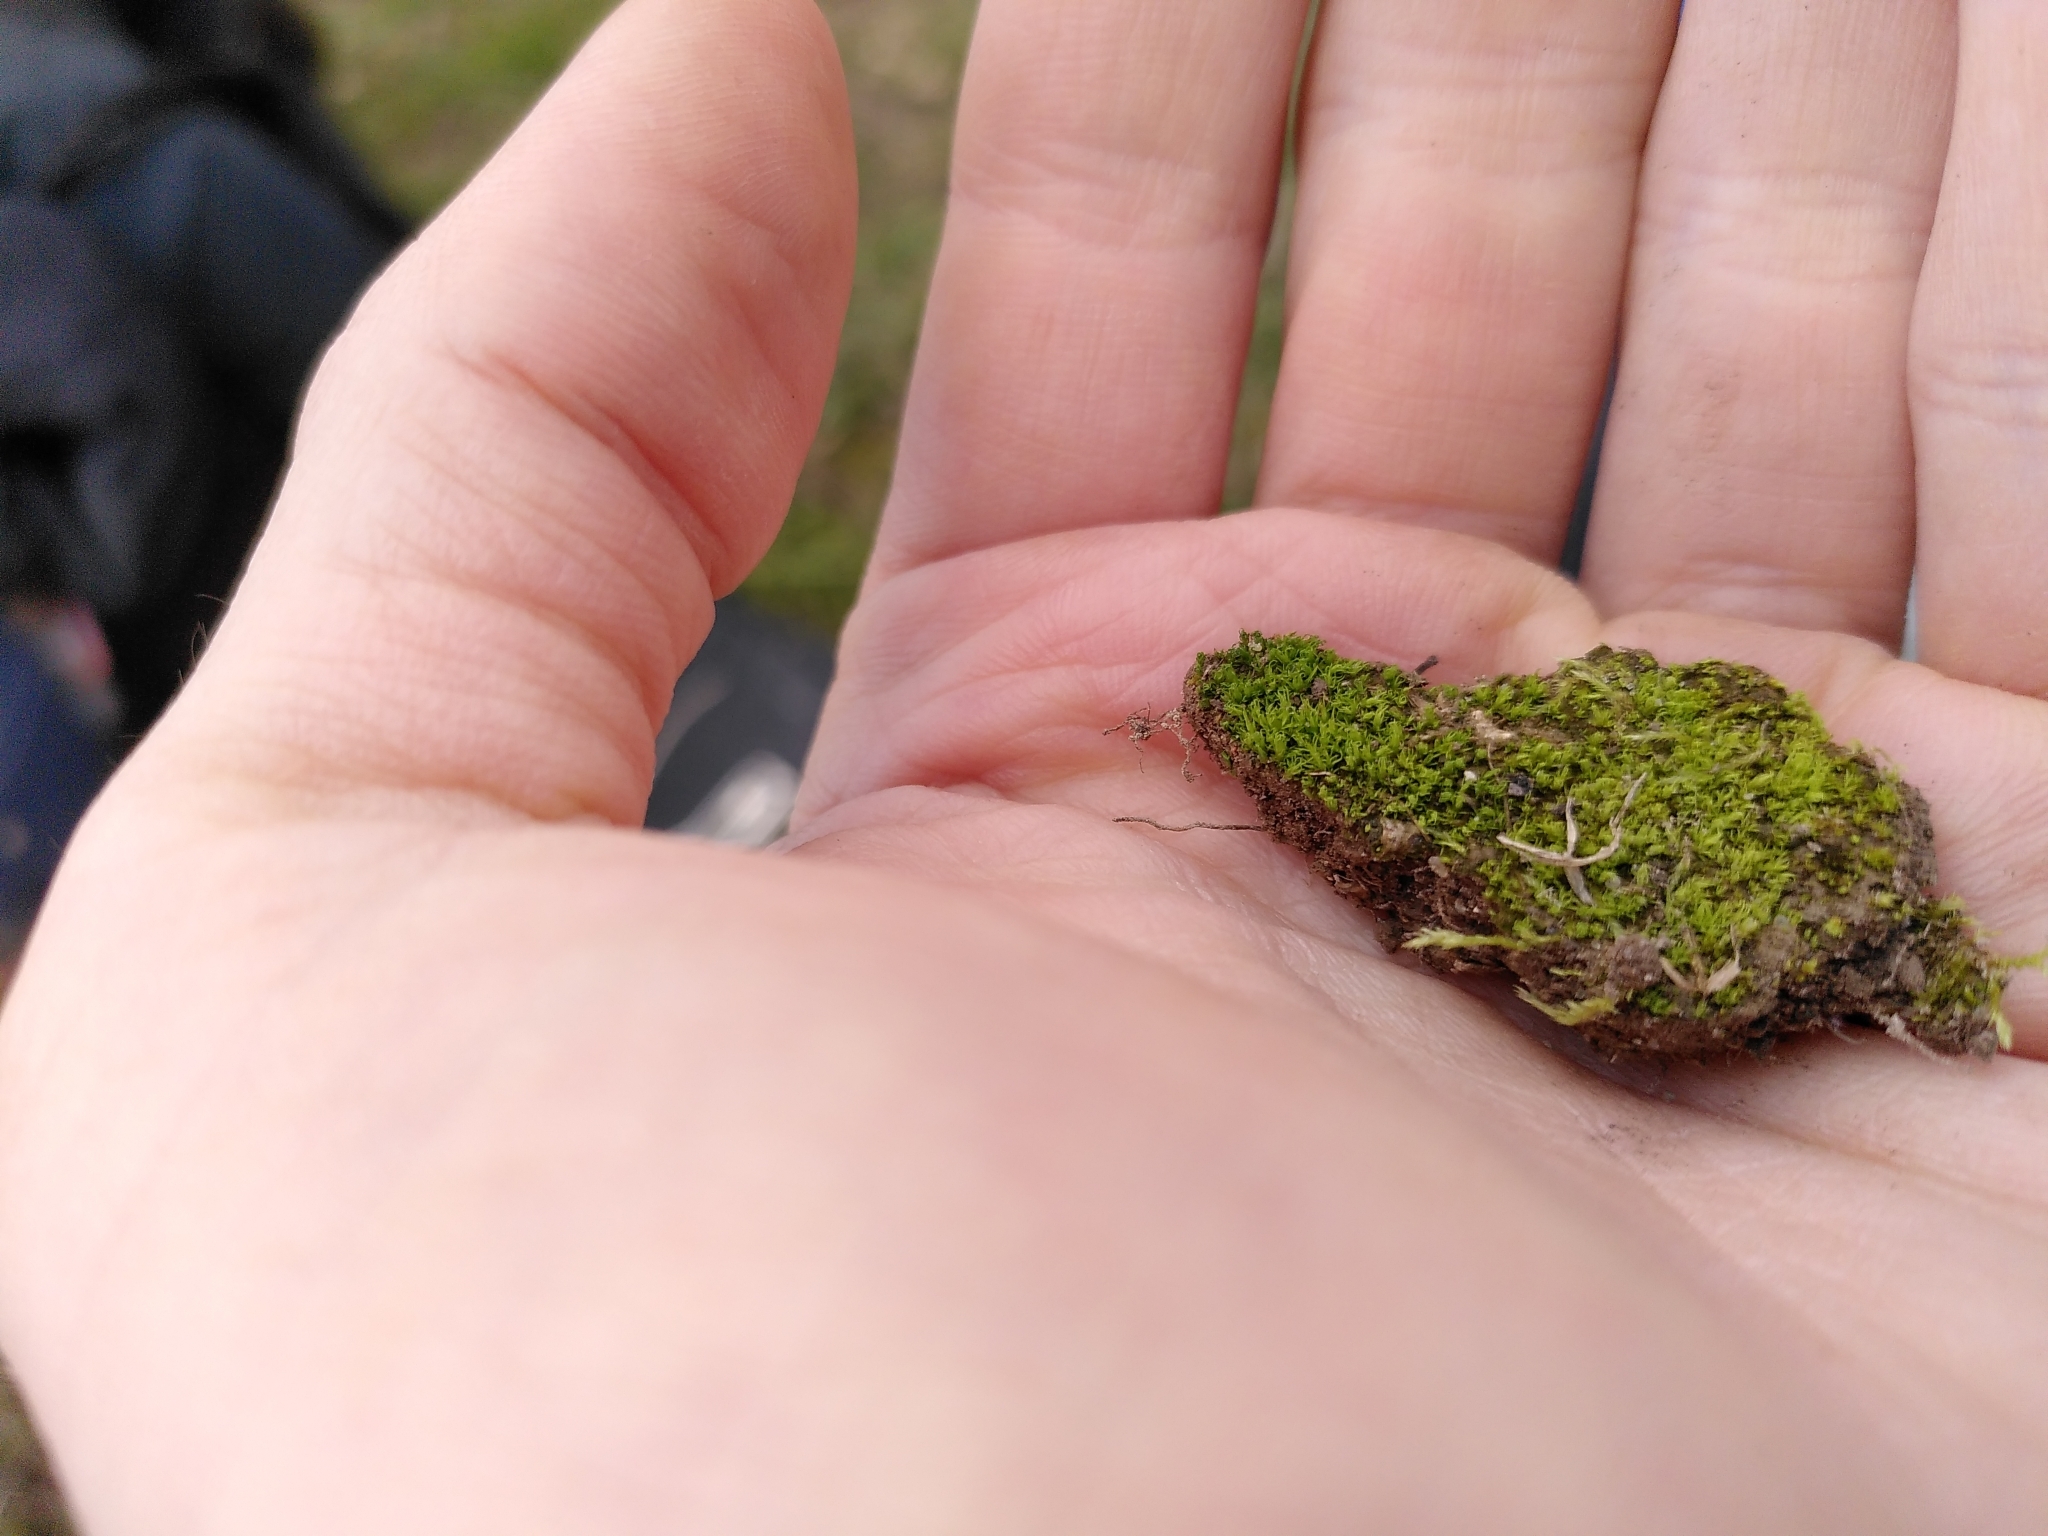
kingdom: Plantae
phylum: Bryophyta
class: Bryopsida
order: Pottiales
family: Pottiaceae
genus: Weissia
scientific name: Weissia angustifolia
